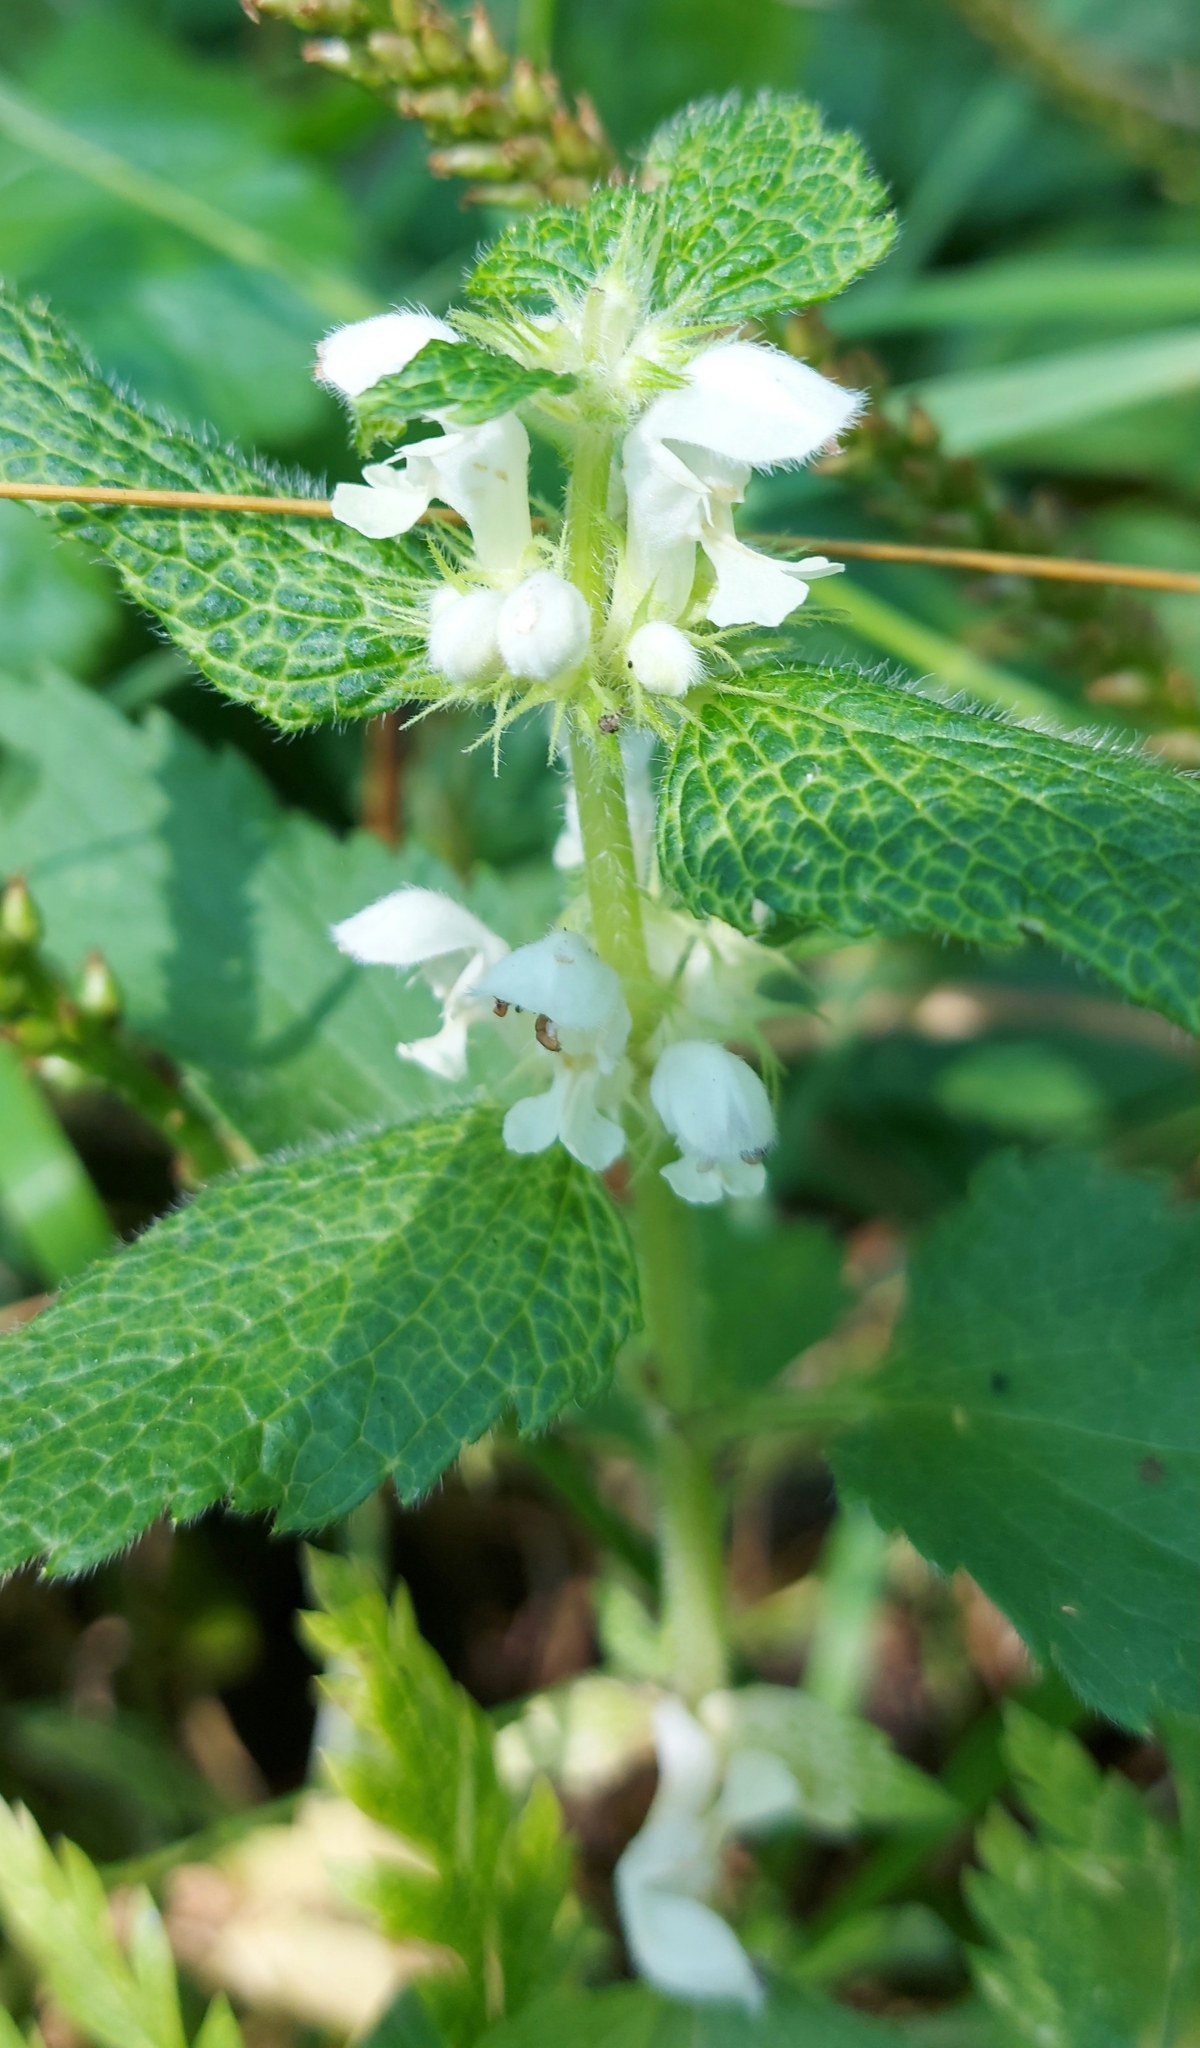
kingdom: Plantae
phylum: Tracheophyta
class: Magnoliopsida
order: Lamiales
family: Lamiaceae
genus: Lamium
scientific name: Lamium album
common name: White dead-nettle
